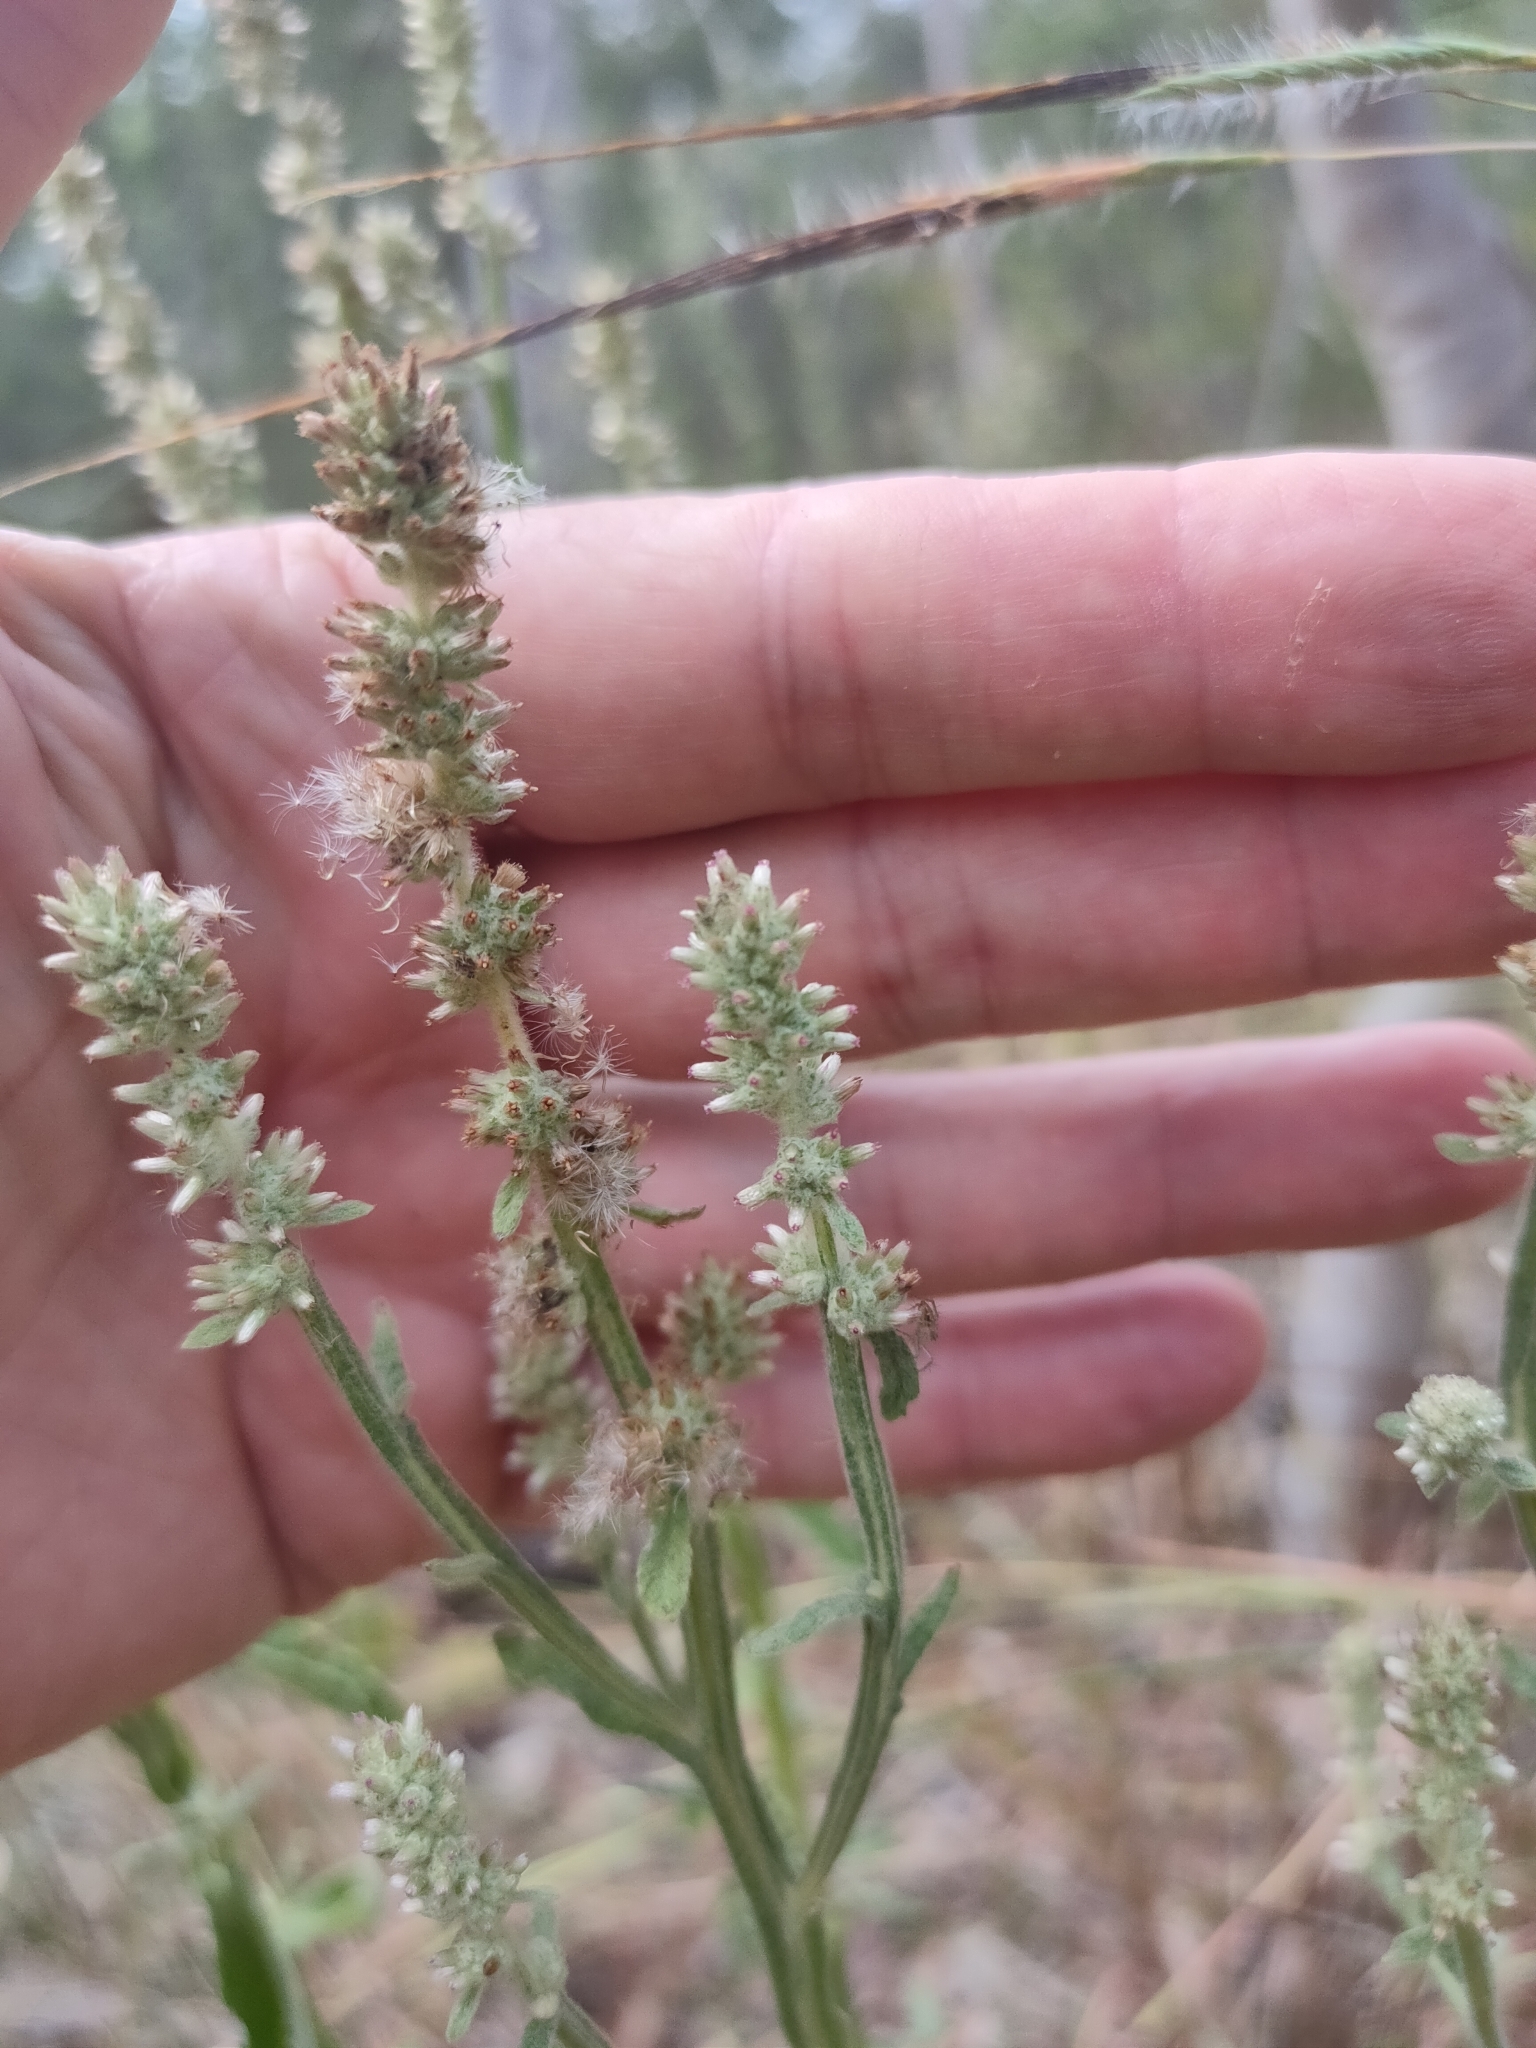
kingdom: Plantae
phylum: Tracheophyta
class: Magnoliopsida
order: Asterales
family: Asteraceae
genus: Pterocaulon
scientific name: Pterocaulon redolens
